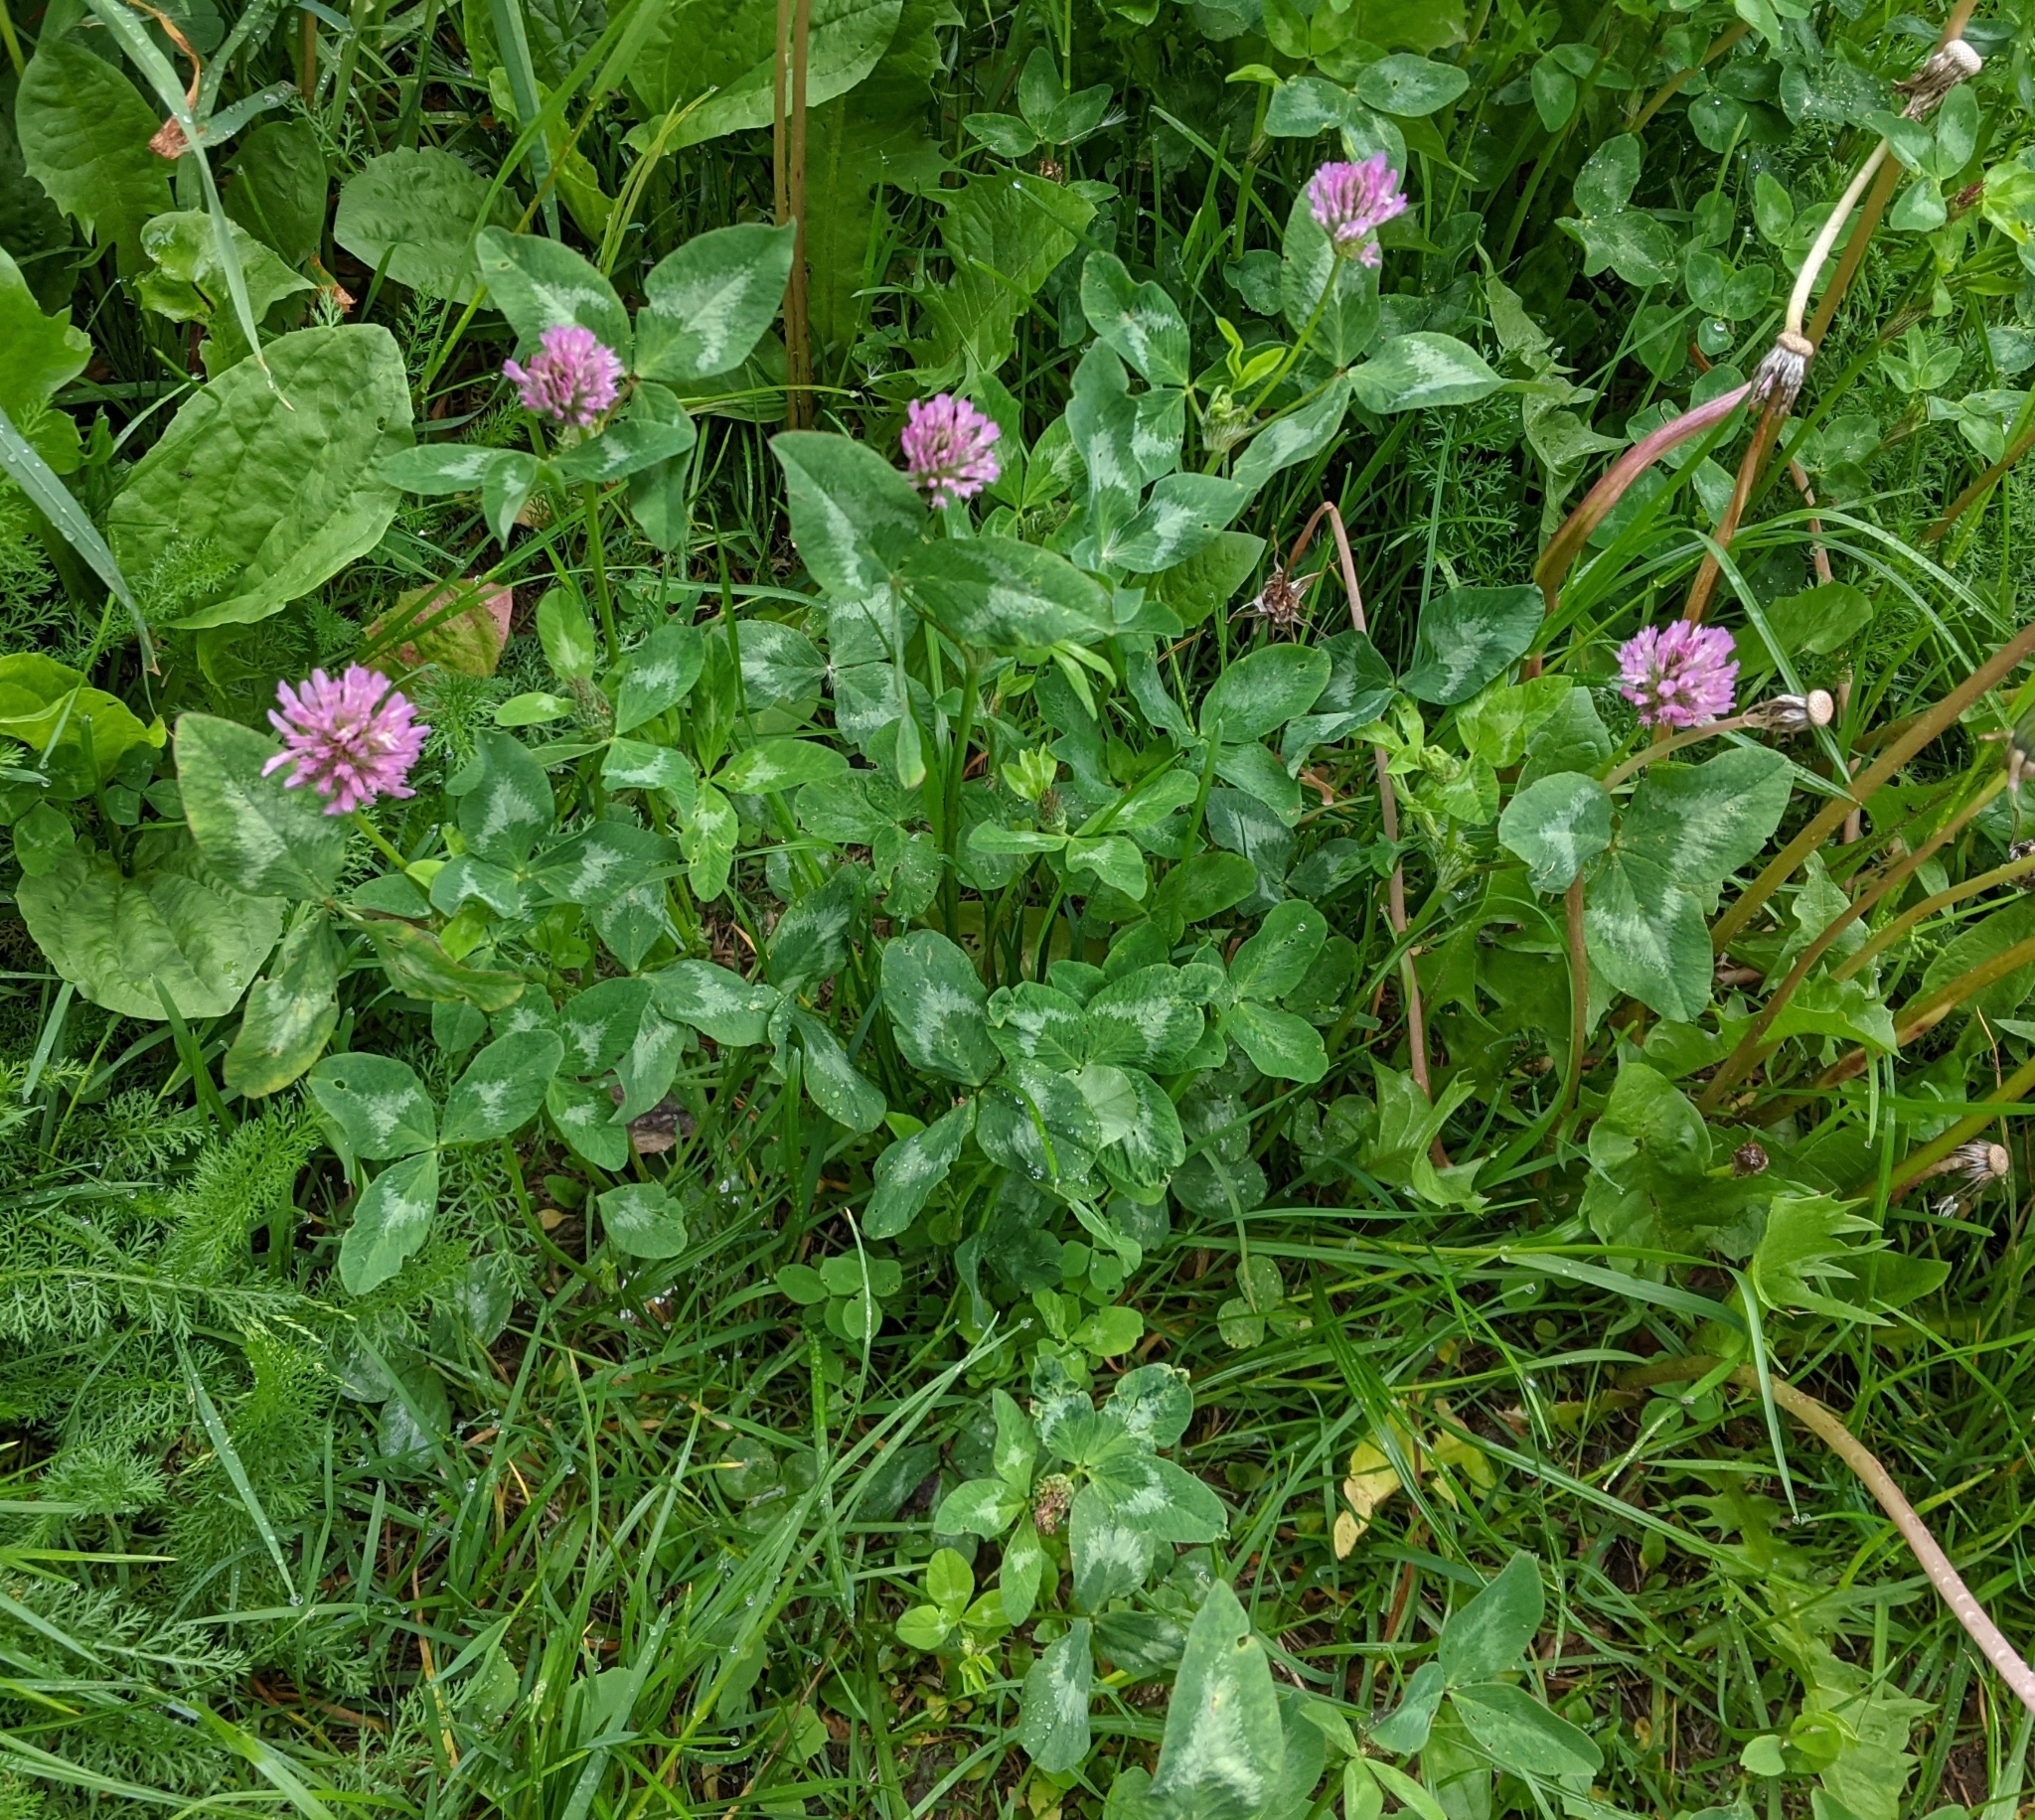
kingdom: Plantae
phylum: Tracheophyta
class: Magnoliopsida
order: Fabales
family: Fabaceae
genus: Trifolium
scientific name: Trifolium pratense
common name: Red clover
